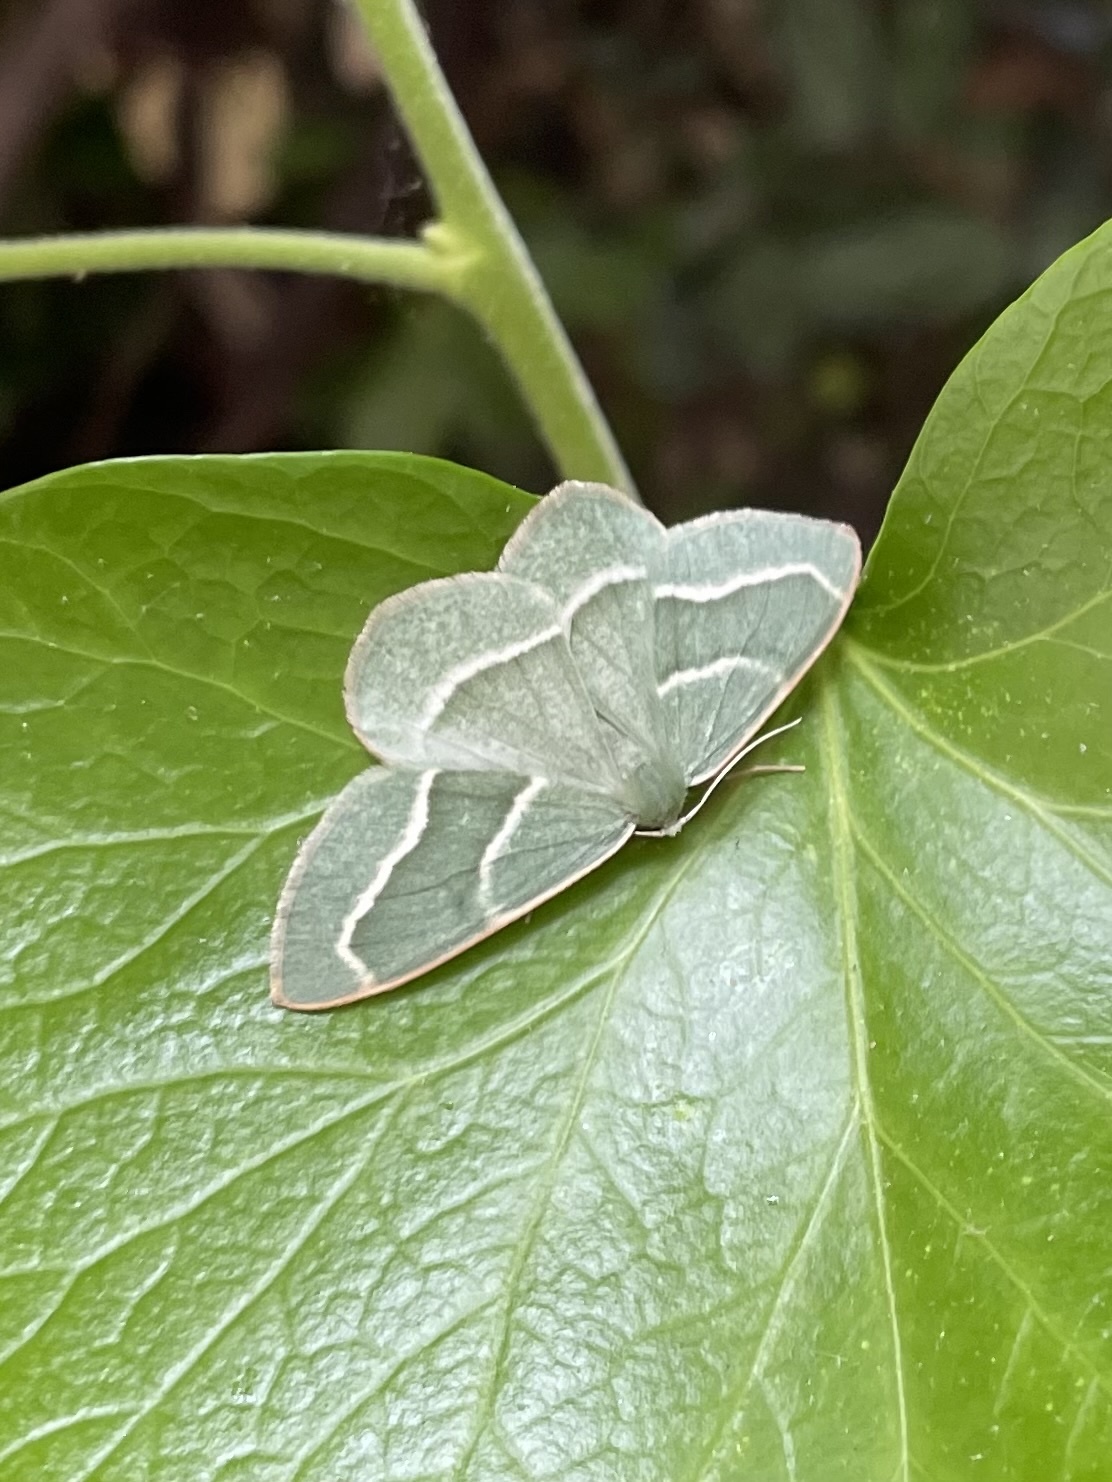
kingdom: Animalia
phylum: Arthropoda
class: Insecta
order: Lepidoptera
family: Geometridae
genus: Hylaea
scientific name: Hylaea fasciaria
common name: Barred red
